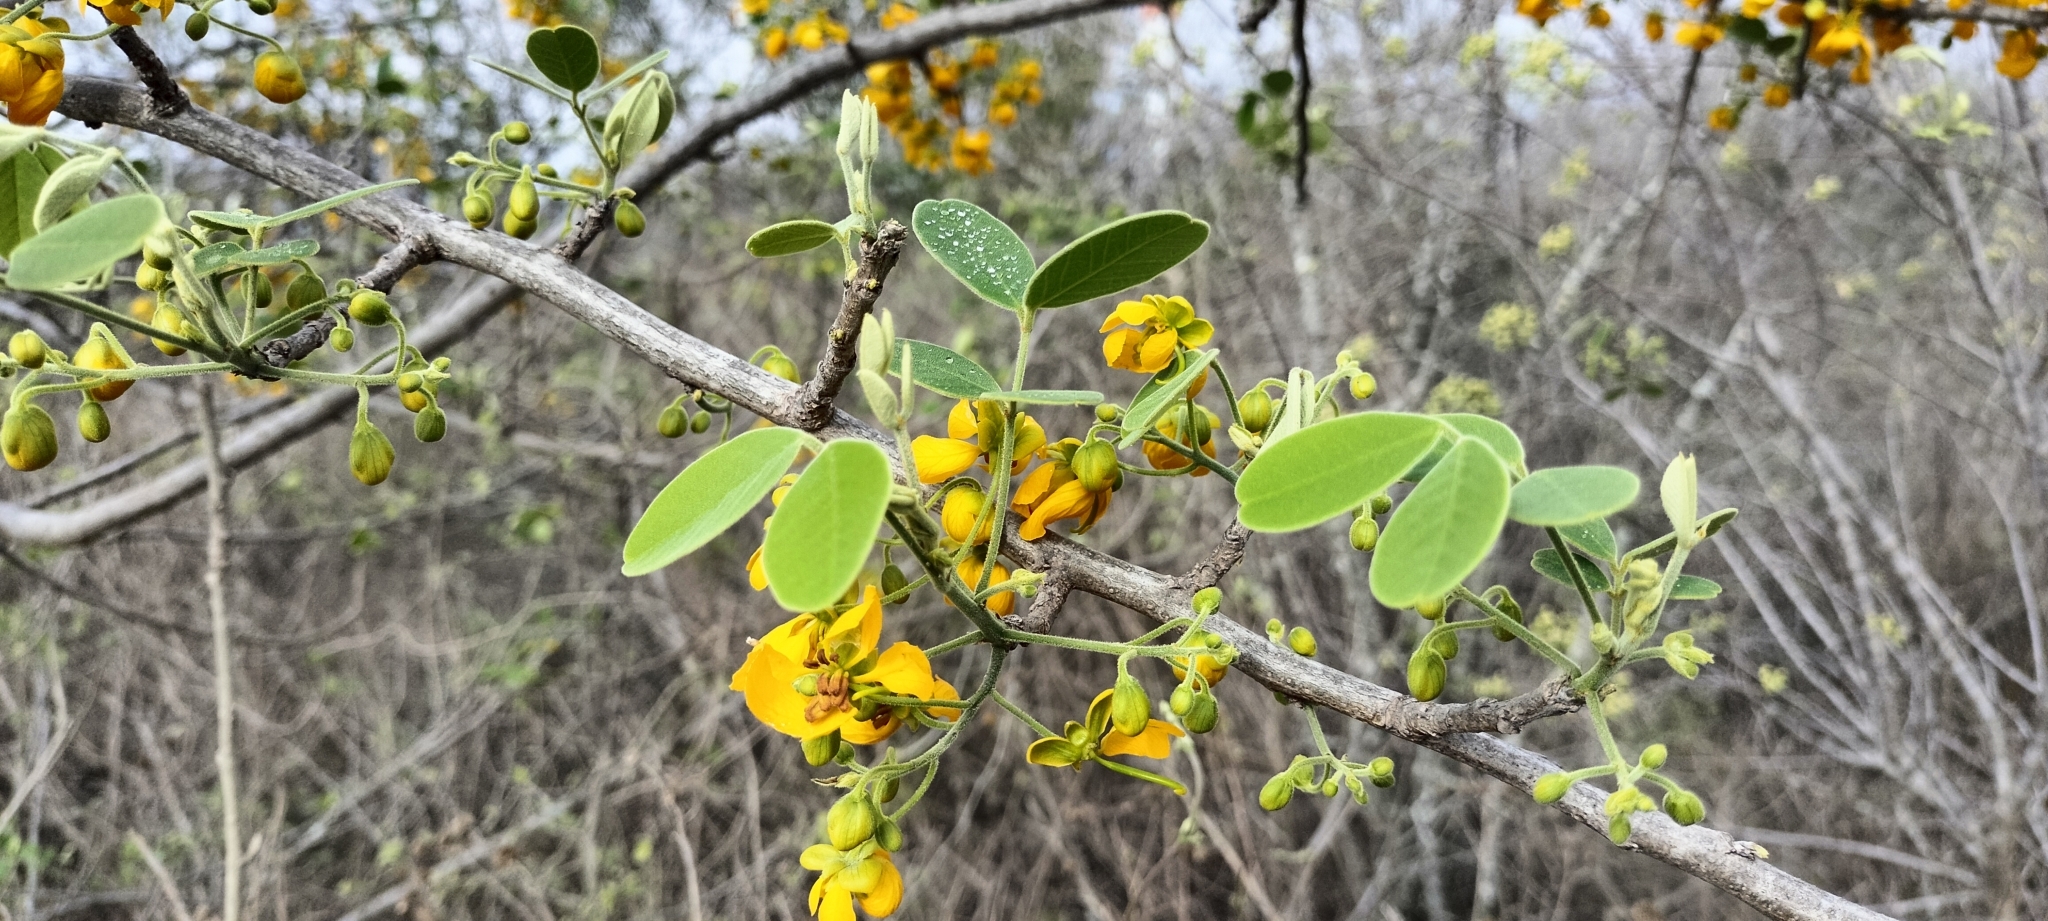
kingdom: Plantae
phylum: Tracheophyta
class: Magnoliopsida
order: Fabales
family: Fabaceae
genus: Senna
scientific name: Senna atomaria
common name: Flor de san jose
